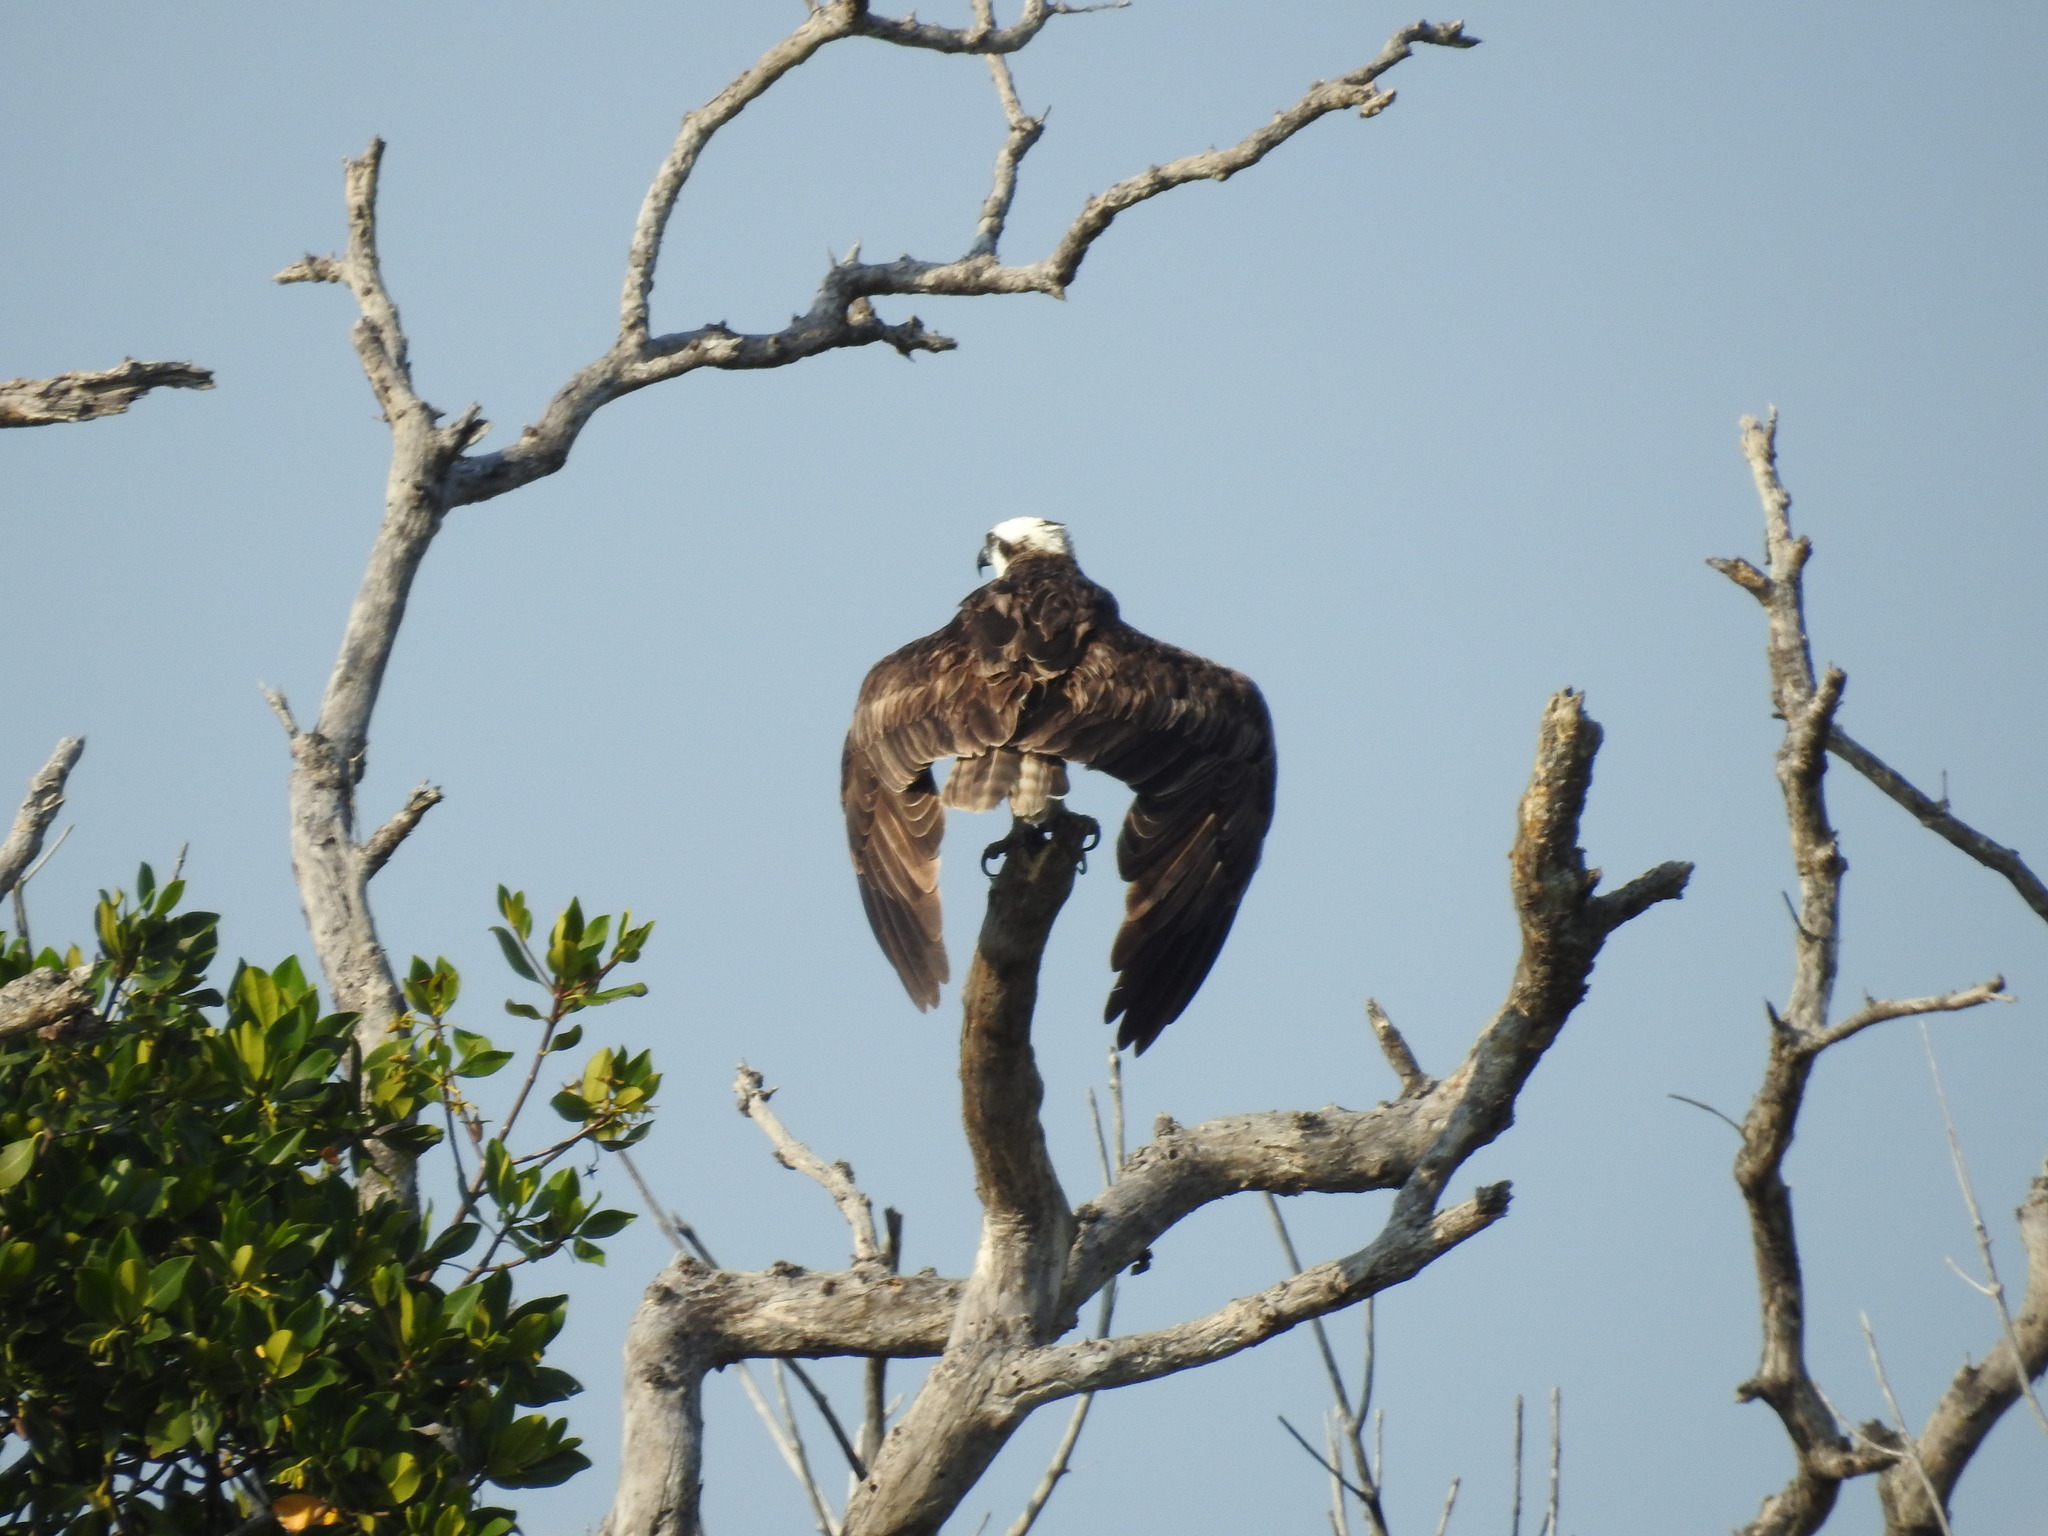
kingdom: Animalia
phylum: Chordata
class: Aves
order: Accipitriformes
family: Pandionidae
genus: Pandion
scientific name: Pandion haliaetus
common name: Osprey
